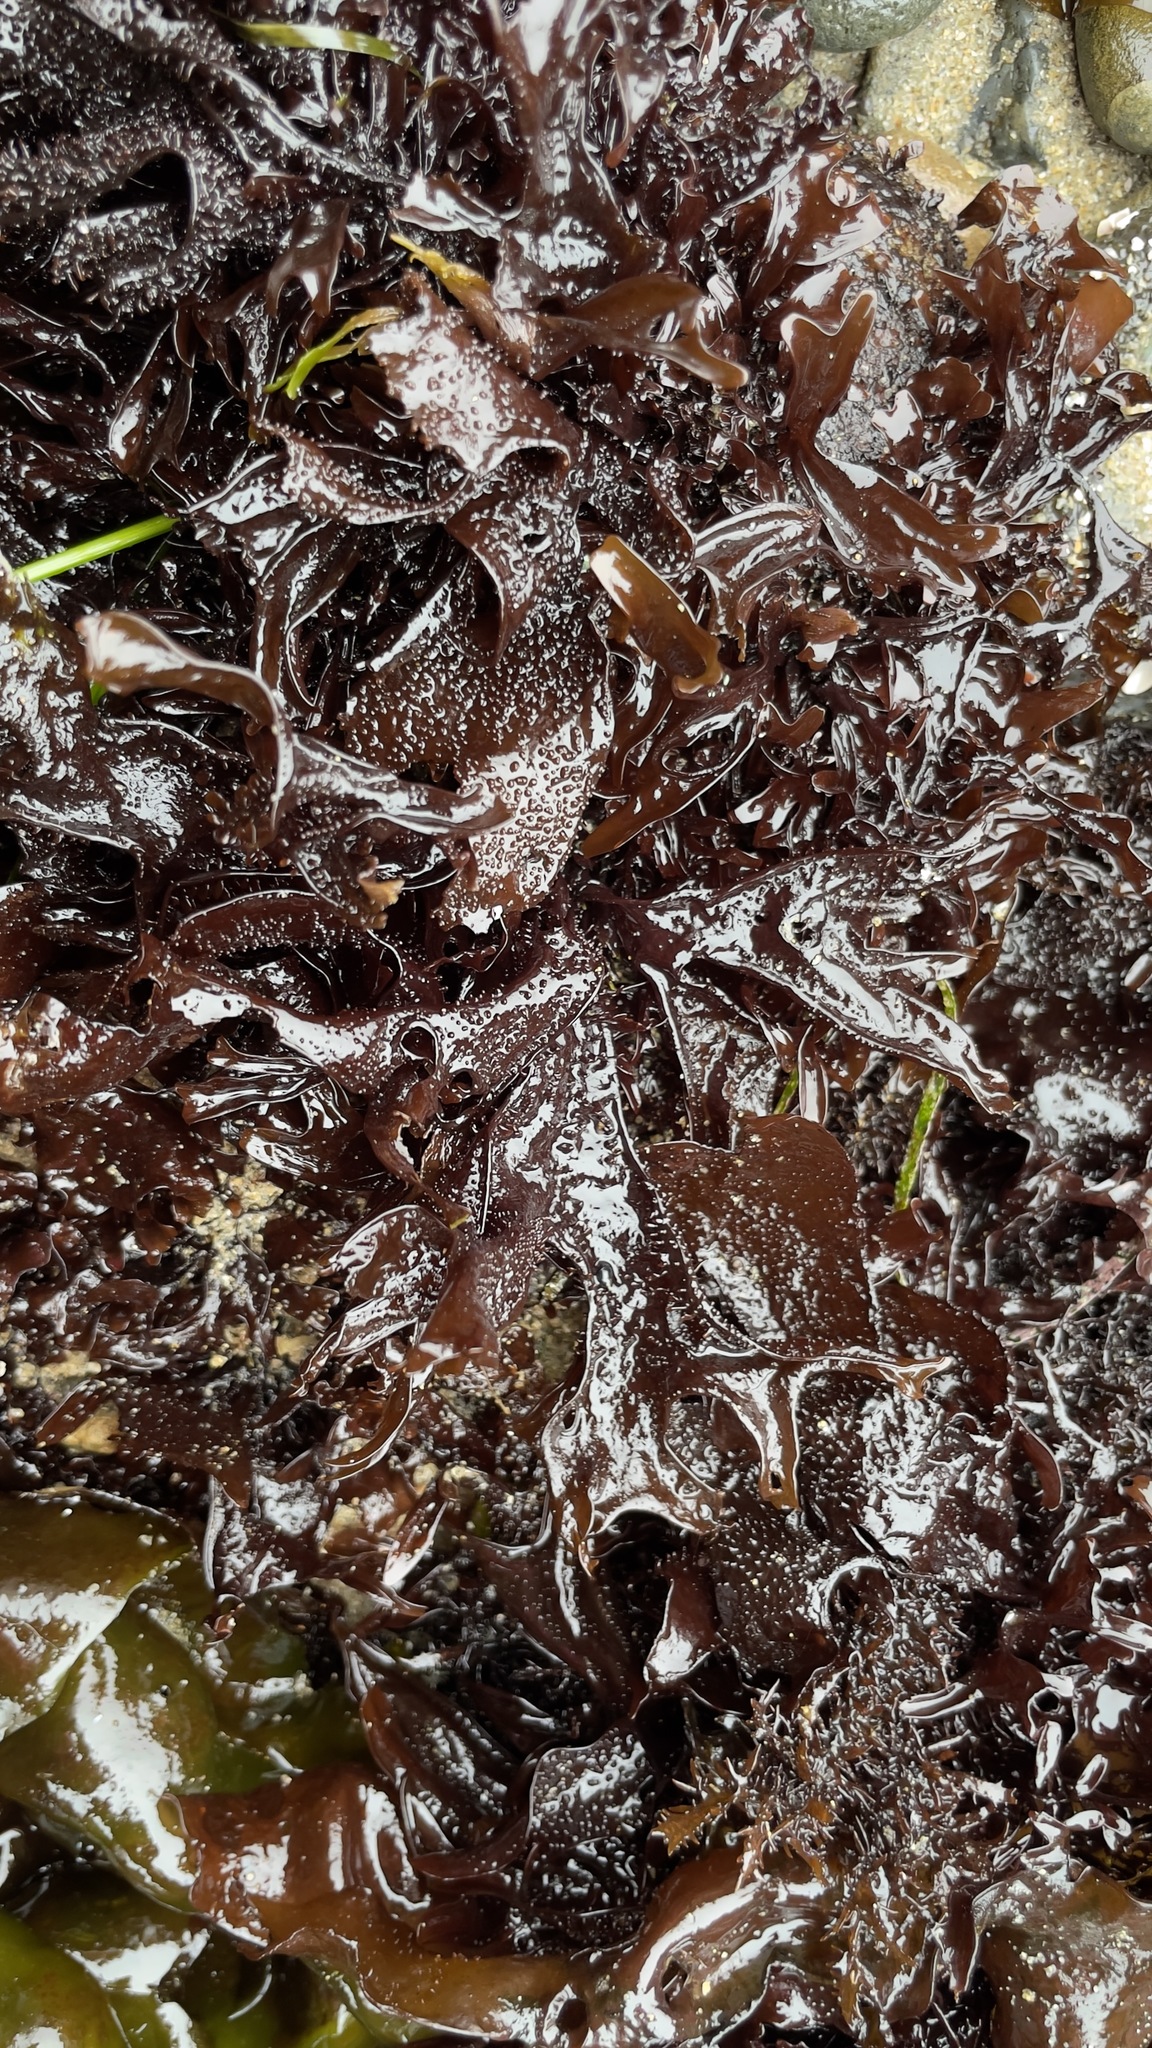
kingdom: Plantae
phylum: Rhodophyta
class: Florideophyceae
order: Gigartinales
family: Phyllophoraceae
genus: Mastocarpus
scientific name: Mastocarpus papillatus
